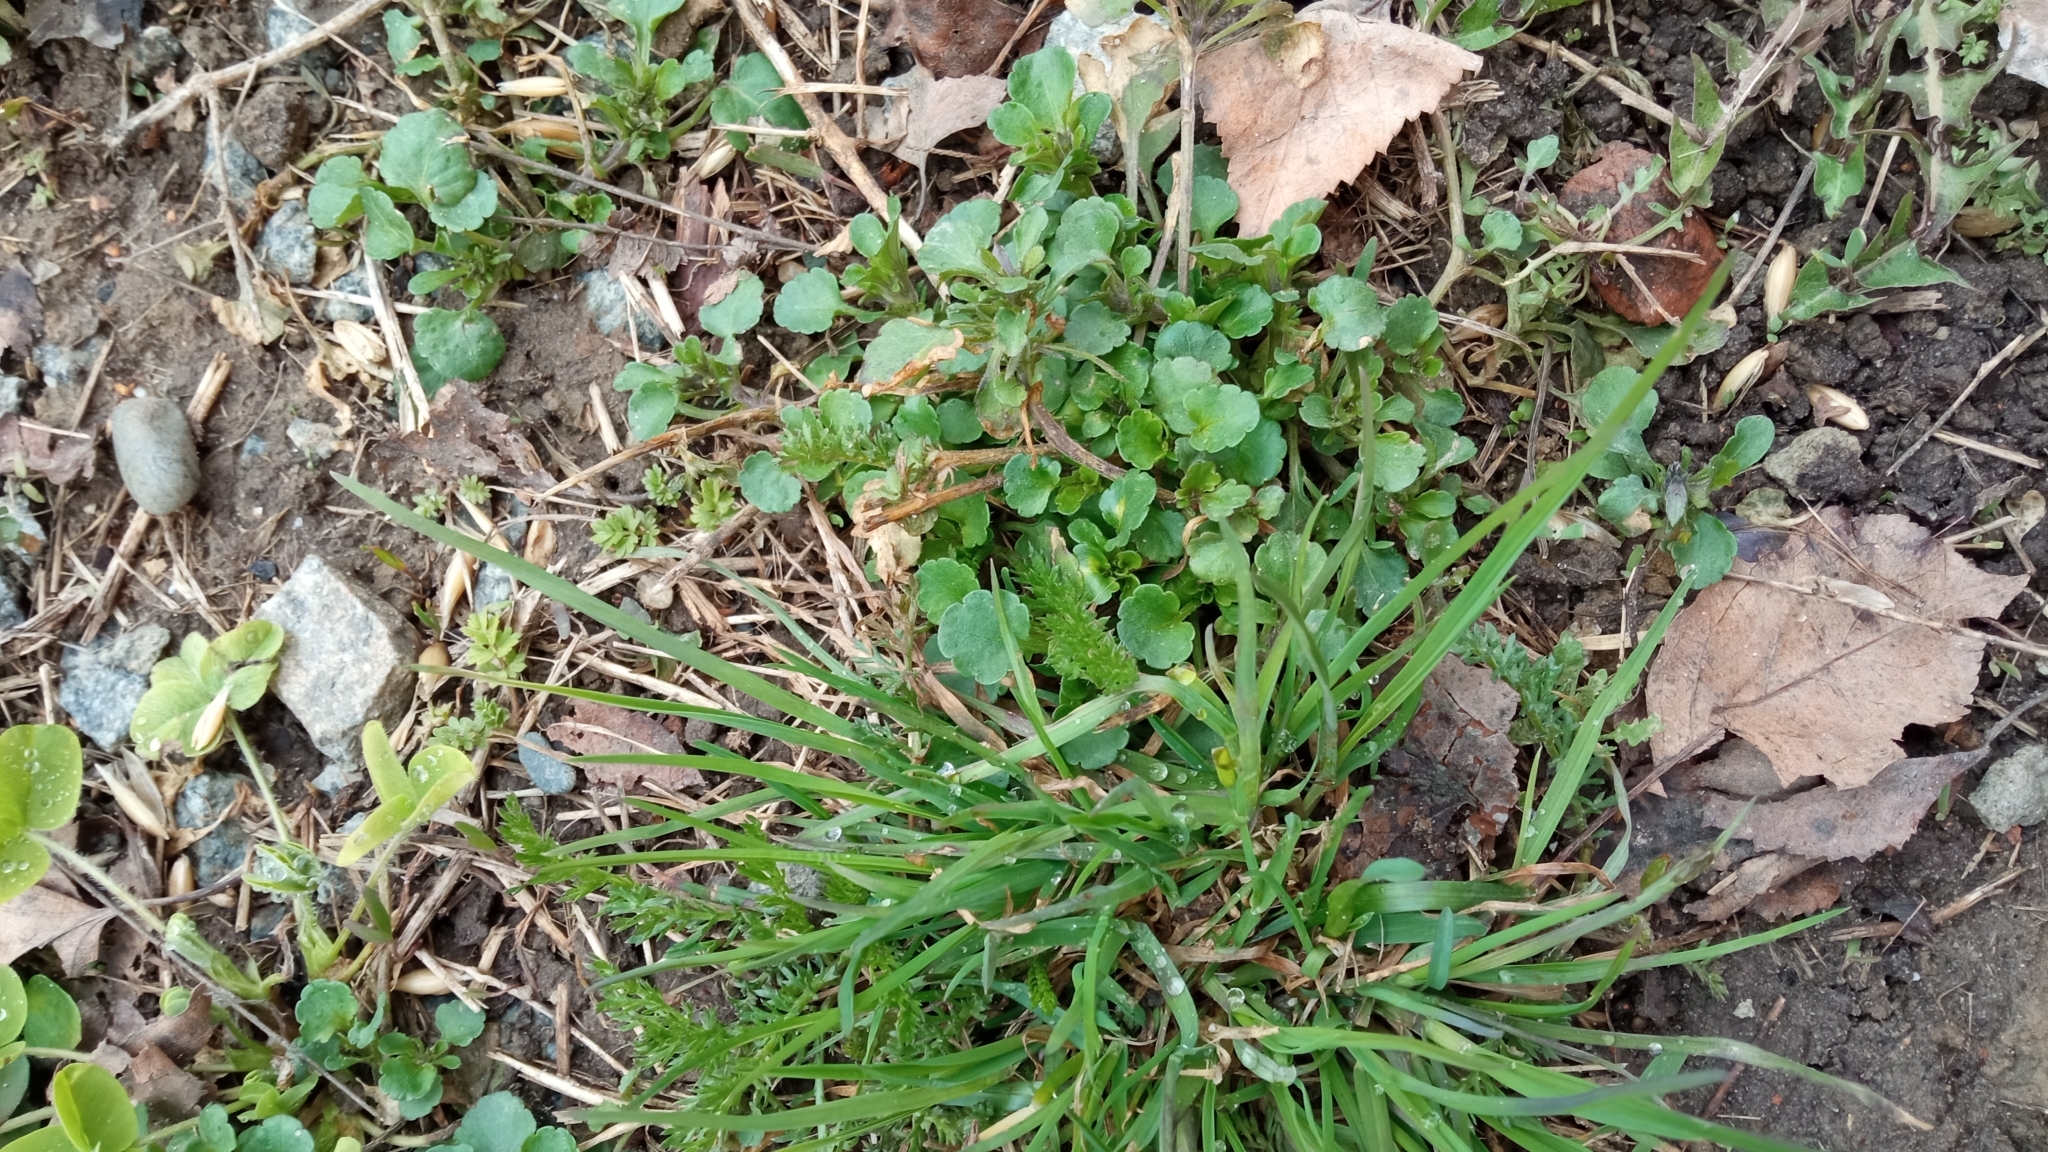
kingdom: Plantae
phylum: Tracheophyta
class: Magnoliopsida
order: Asterales
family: Asteraceae
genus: Leucanthemum
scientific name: Leucanthemum ircutianum
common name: Daisy
